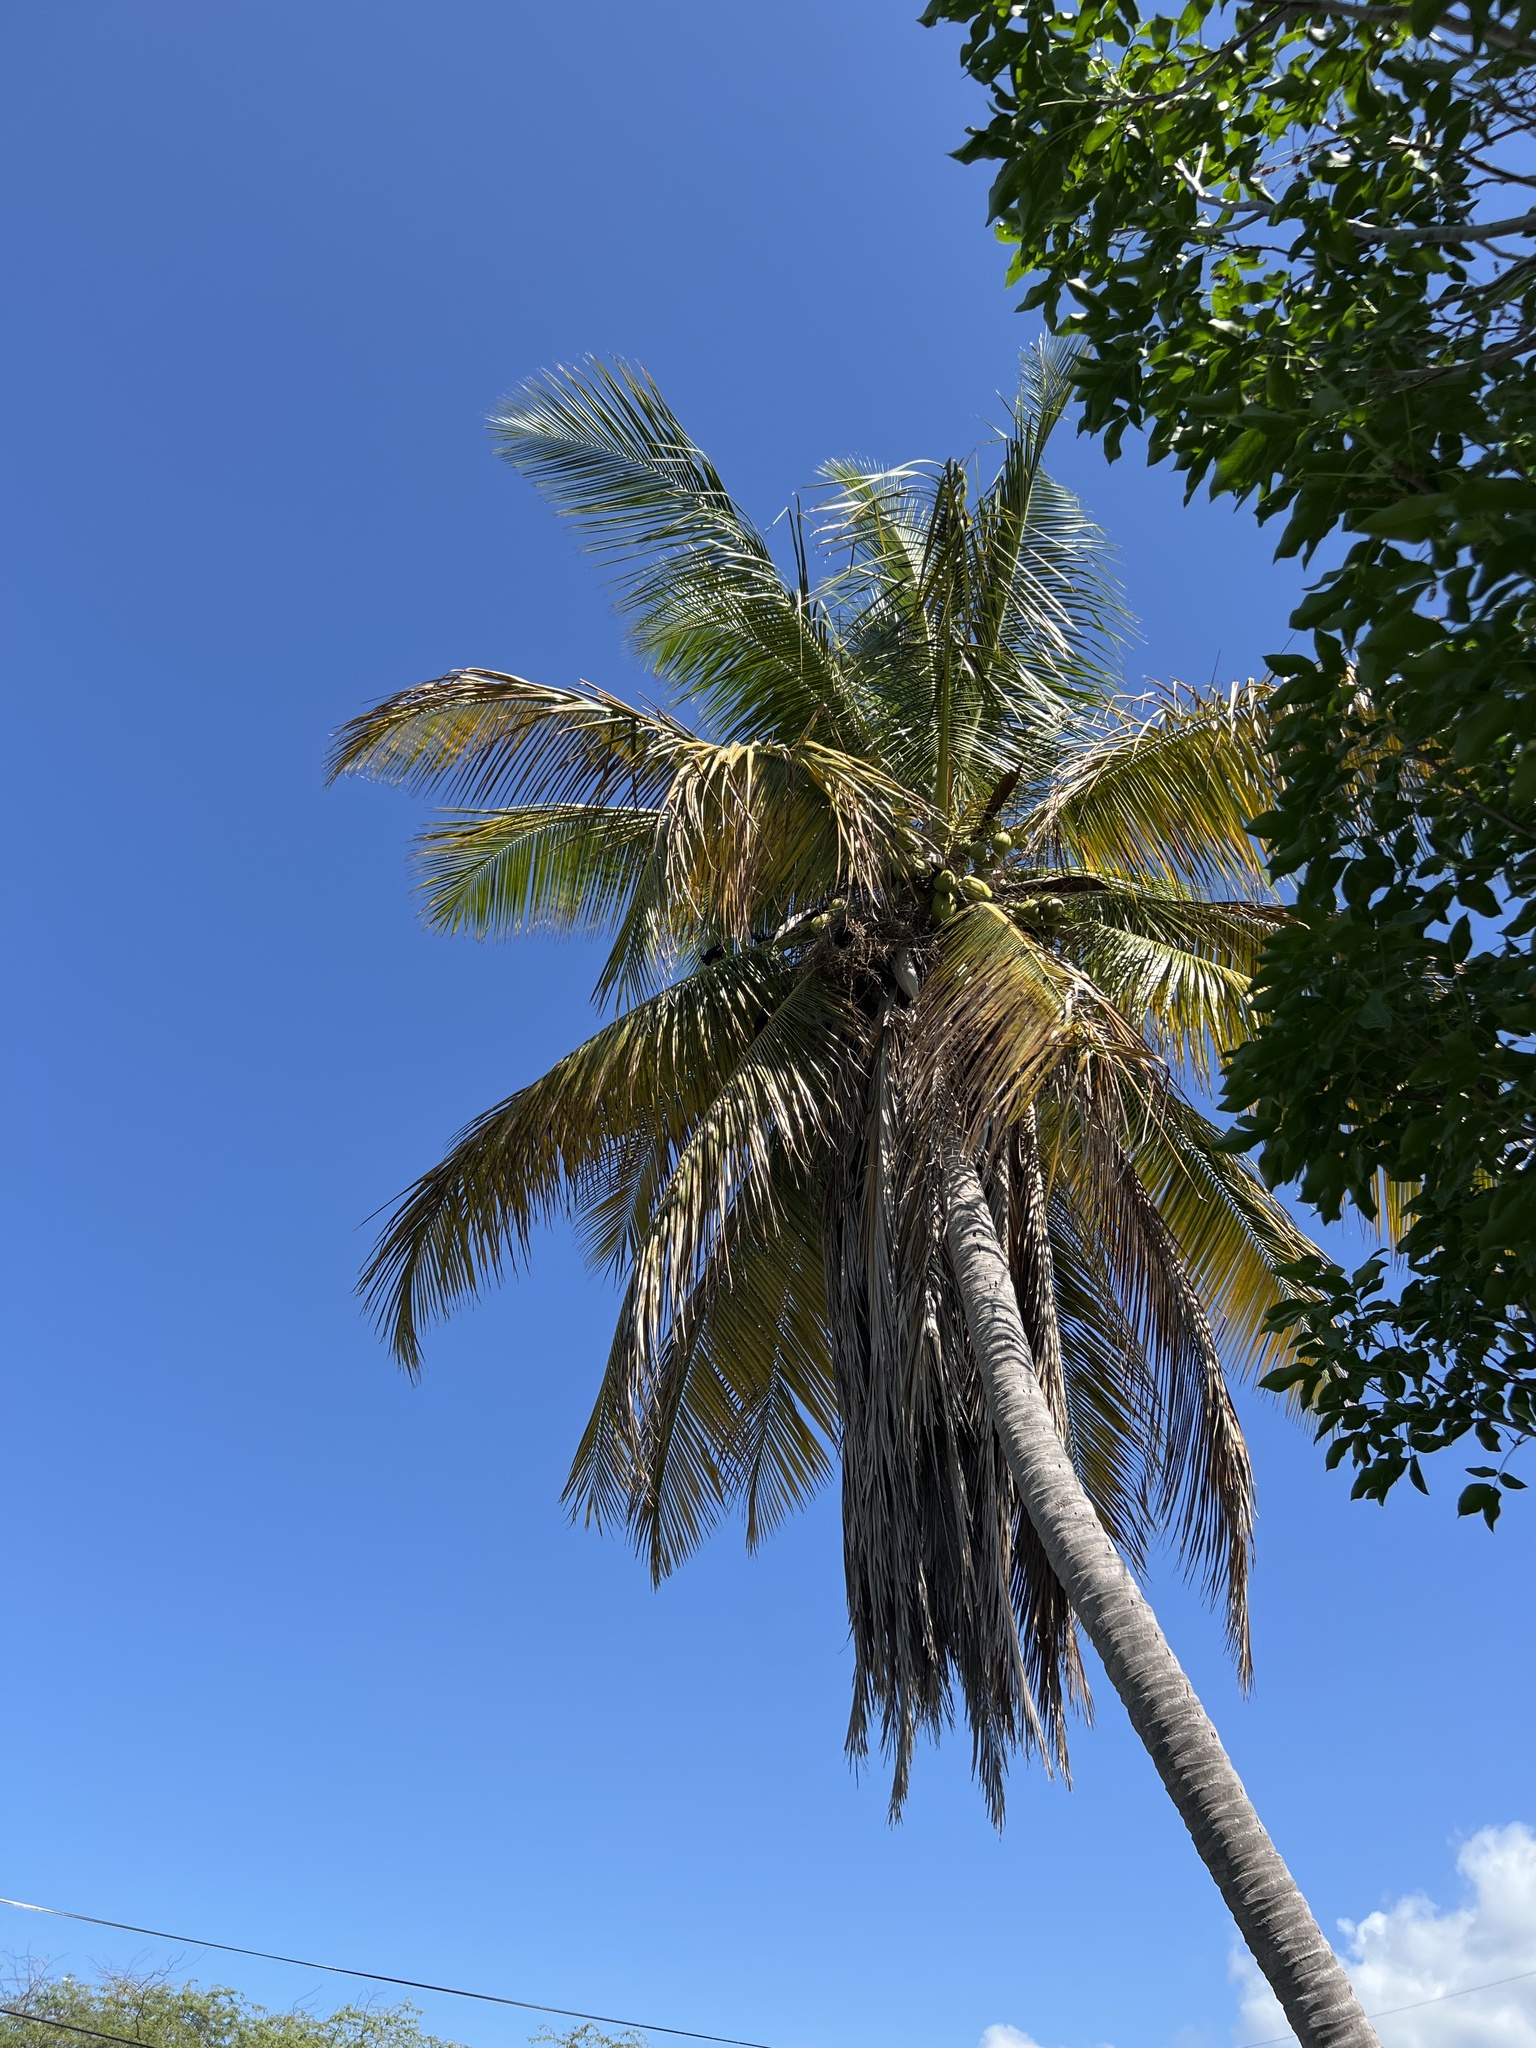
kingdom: Plantae
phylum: Tracheophyta
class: Liliopsida
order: Arecales
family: Arecaceae
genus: Cocos
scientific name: Cocos nucifera
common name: Coconut palm
